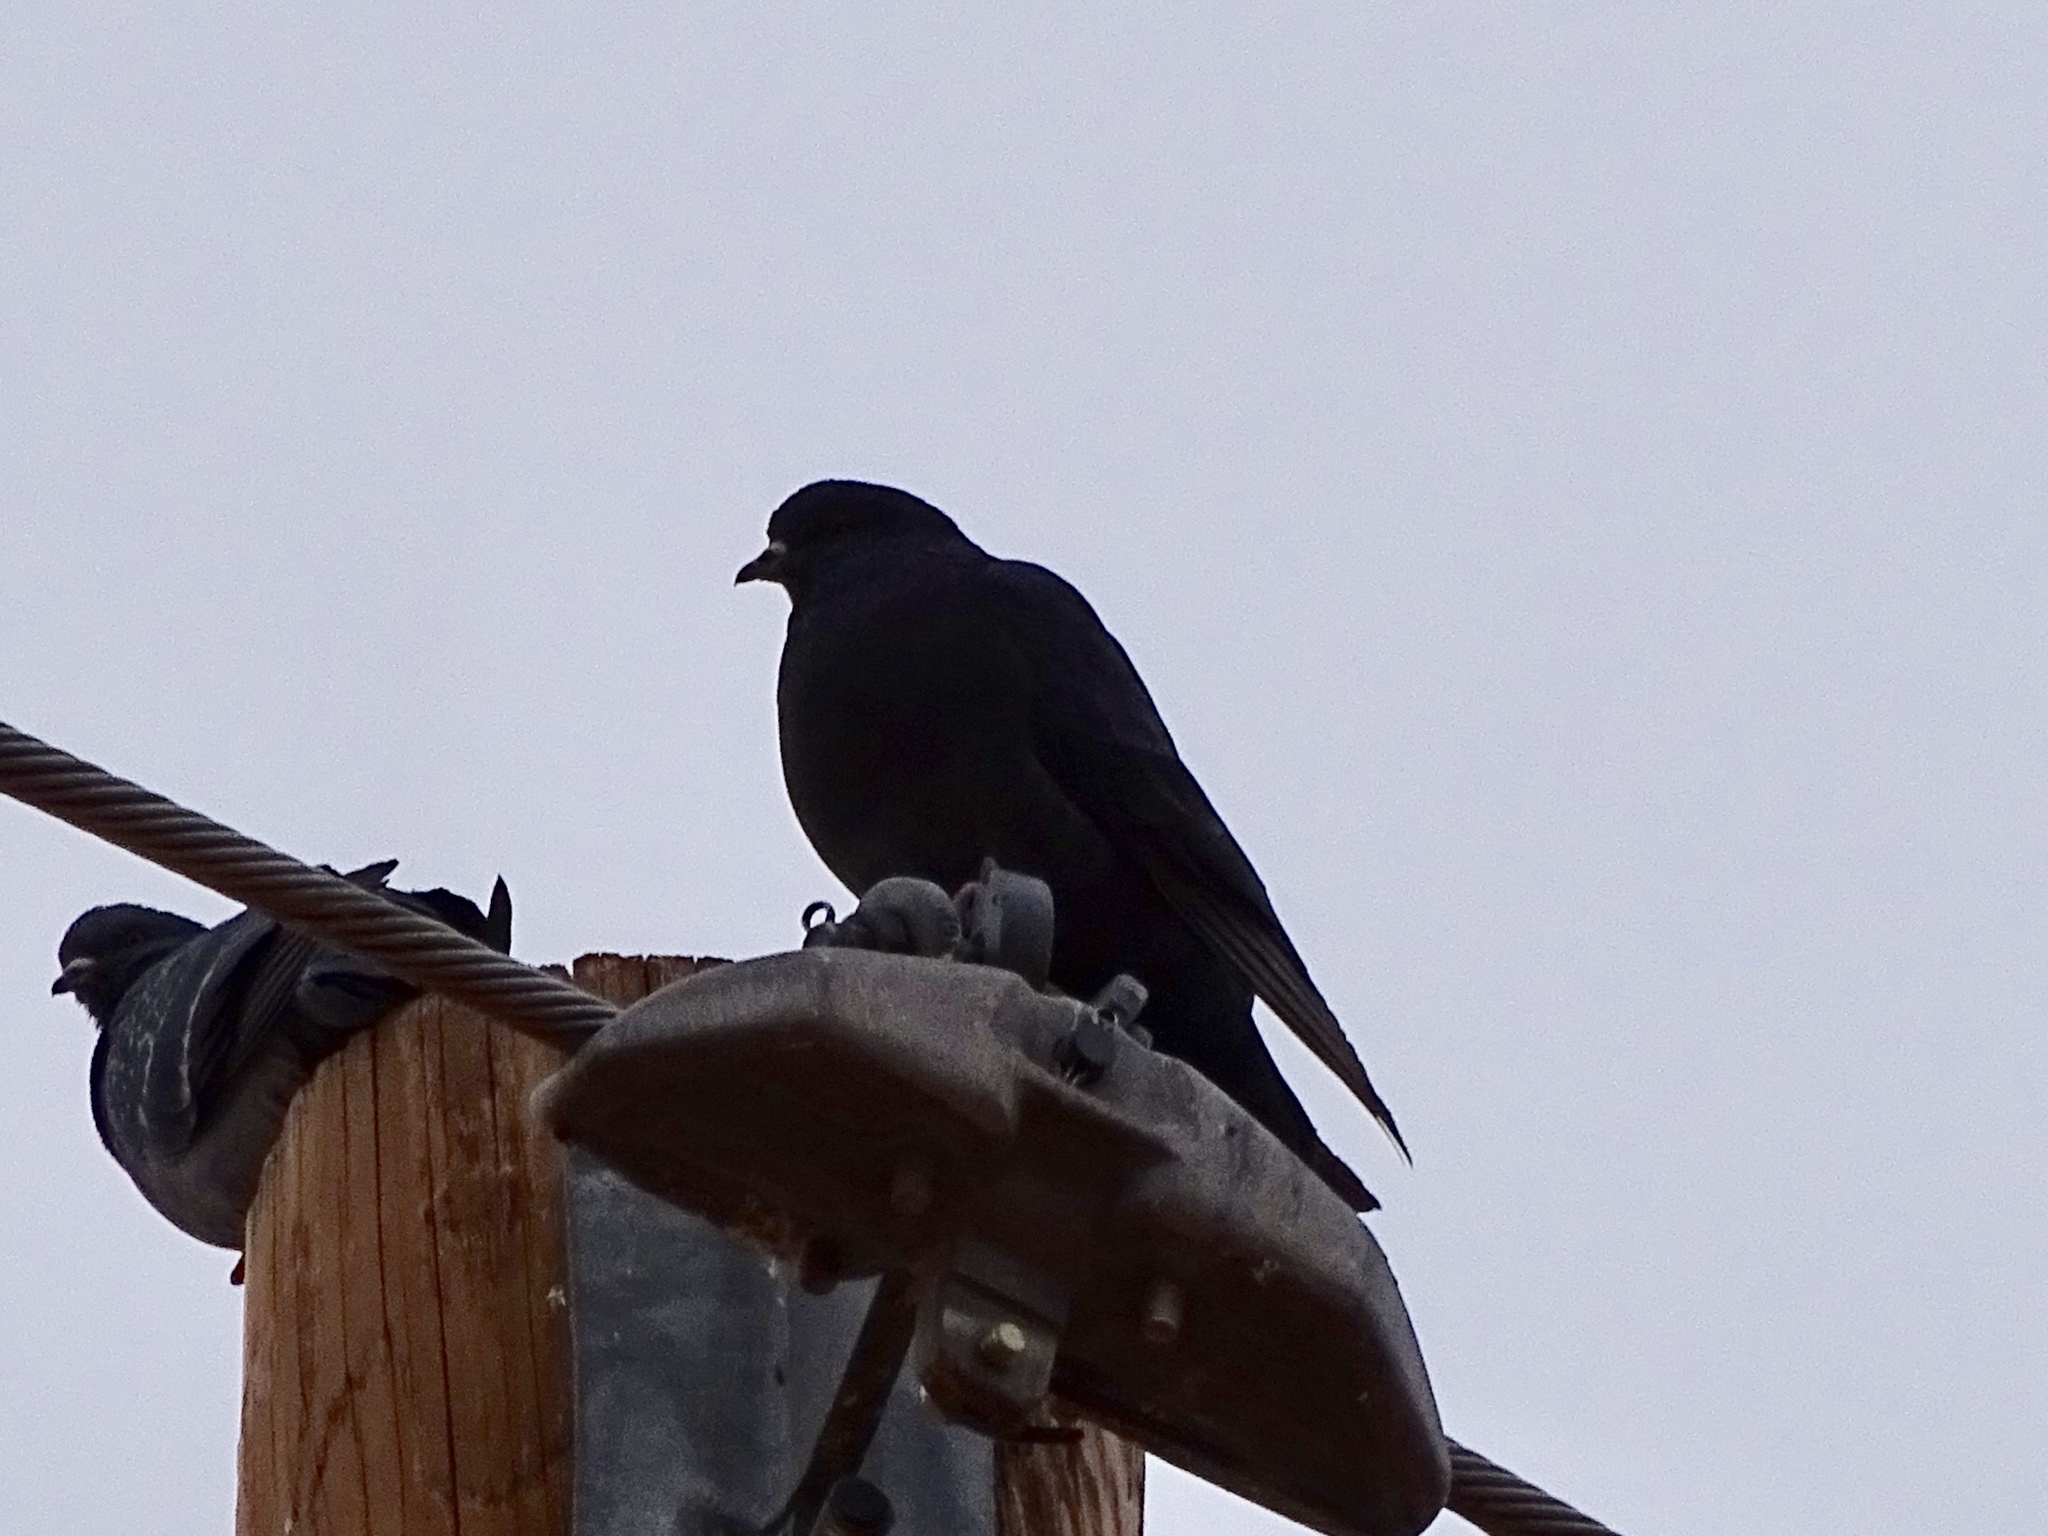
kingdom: Animalia
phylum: Chordata
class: Aves
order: Columbiformes
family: Columbidae
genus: Columba
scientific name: Columba livia
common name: Rock pigeon
